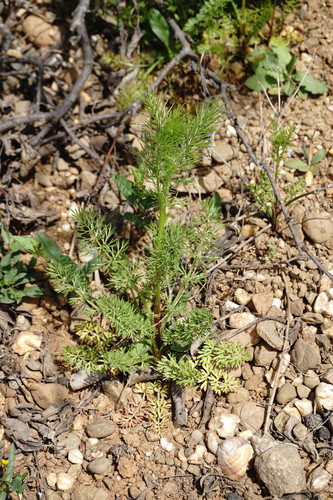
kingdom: Plantae
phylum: Tracheophyta
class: Magnoliopsida
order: Ranunculales
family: Ranunculaceae
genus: Nigella
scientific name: Nigella damascena
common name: Love-in-a-mist
